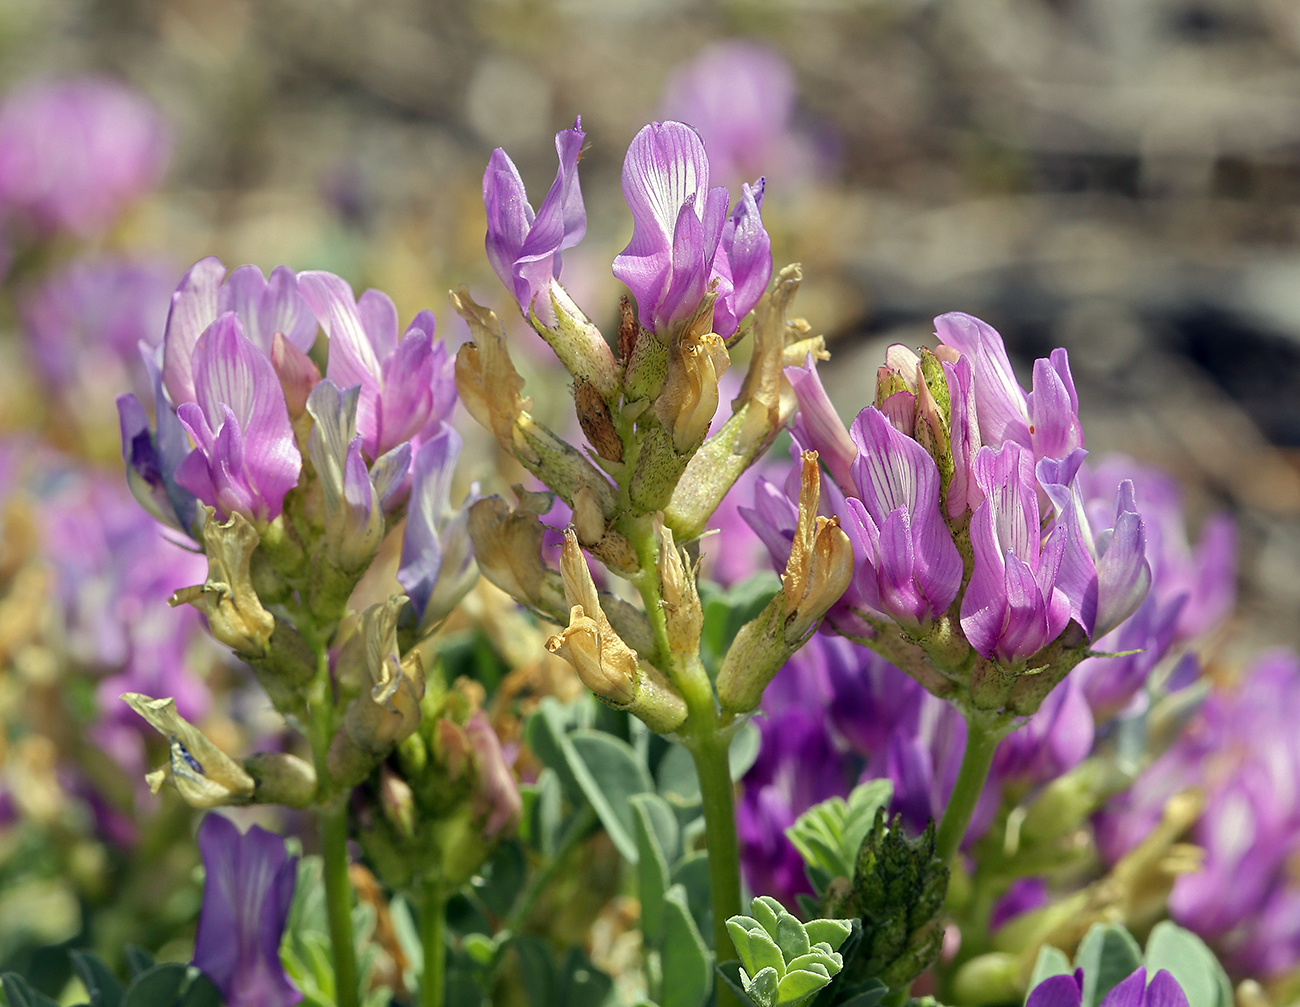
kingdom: Plantae
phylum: Tracheophyta
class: Magnoliopsida
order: Fabales
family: Fabaceae
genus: Astragalus
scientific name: Astragalus lentiginosus
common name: Freckled milkvetch
